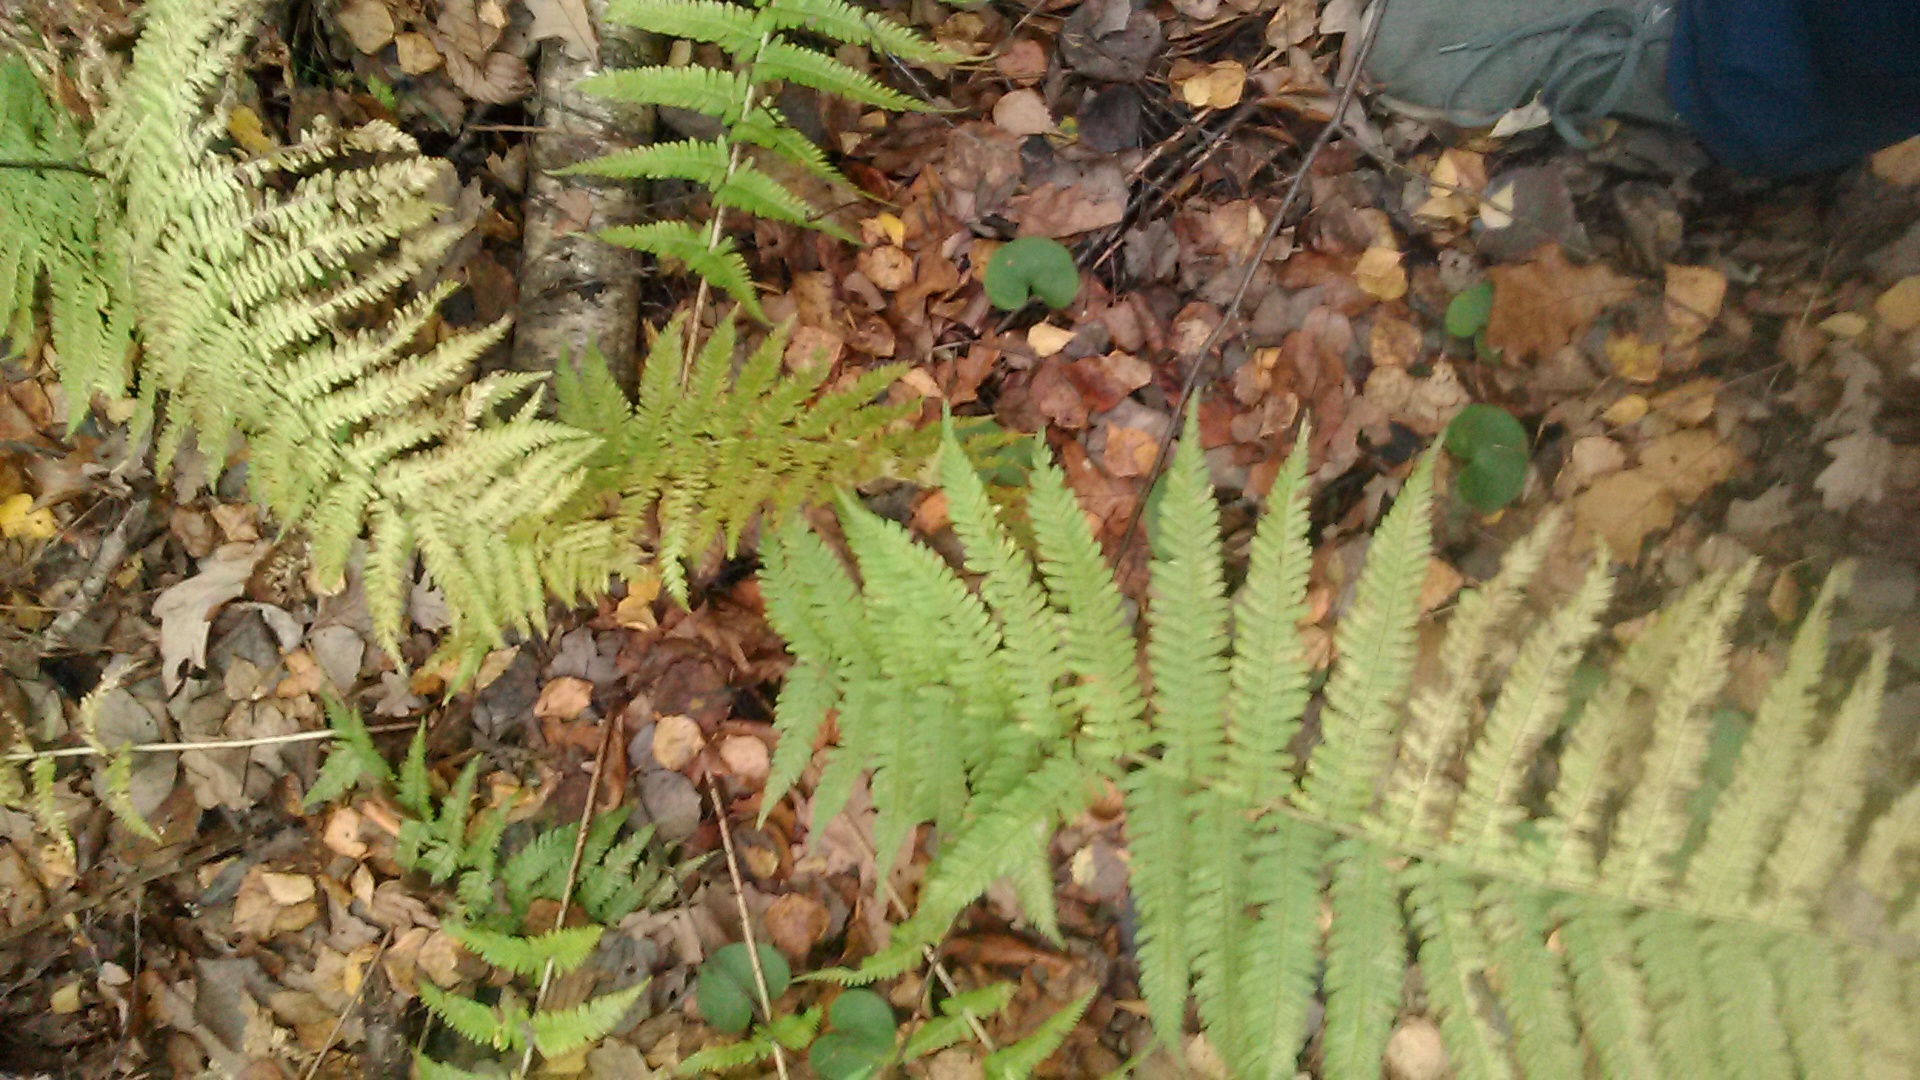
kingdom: Plantae
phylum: Tracheophyta
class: Polypodiopsida
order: Polypodiales
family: Dryopteridaceae
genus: Dryopteris
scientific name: Dryopteris filix-mas
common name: Male fern
